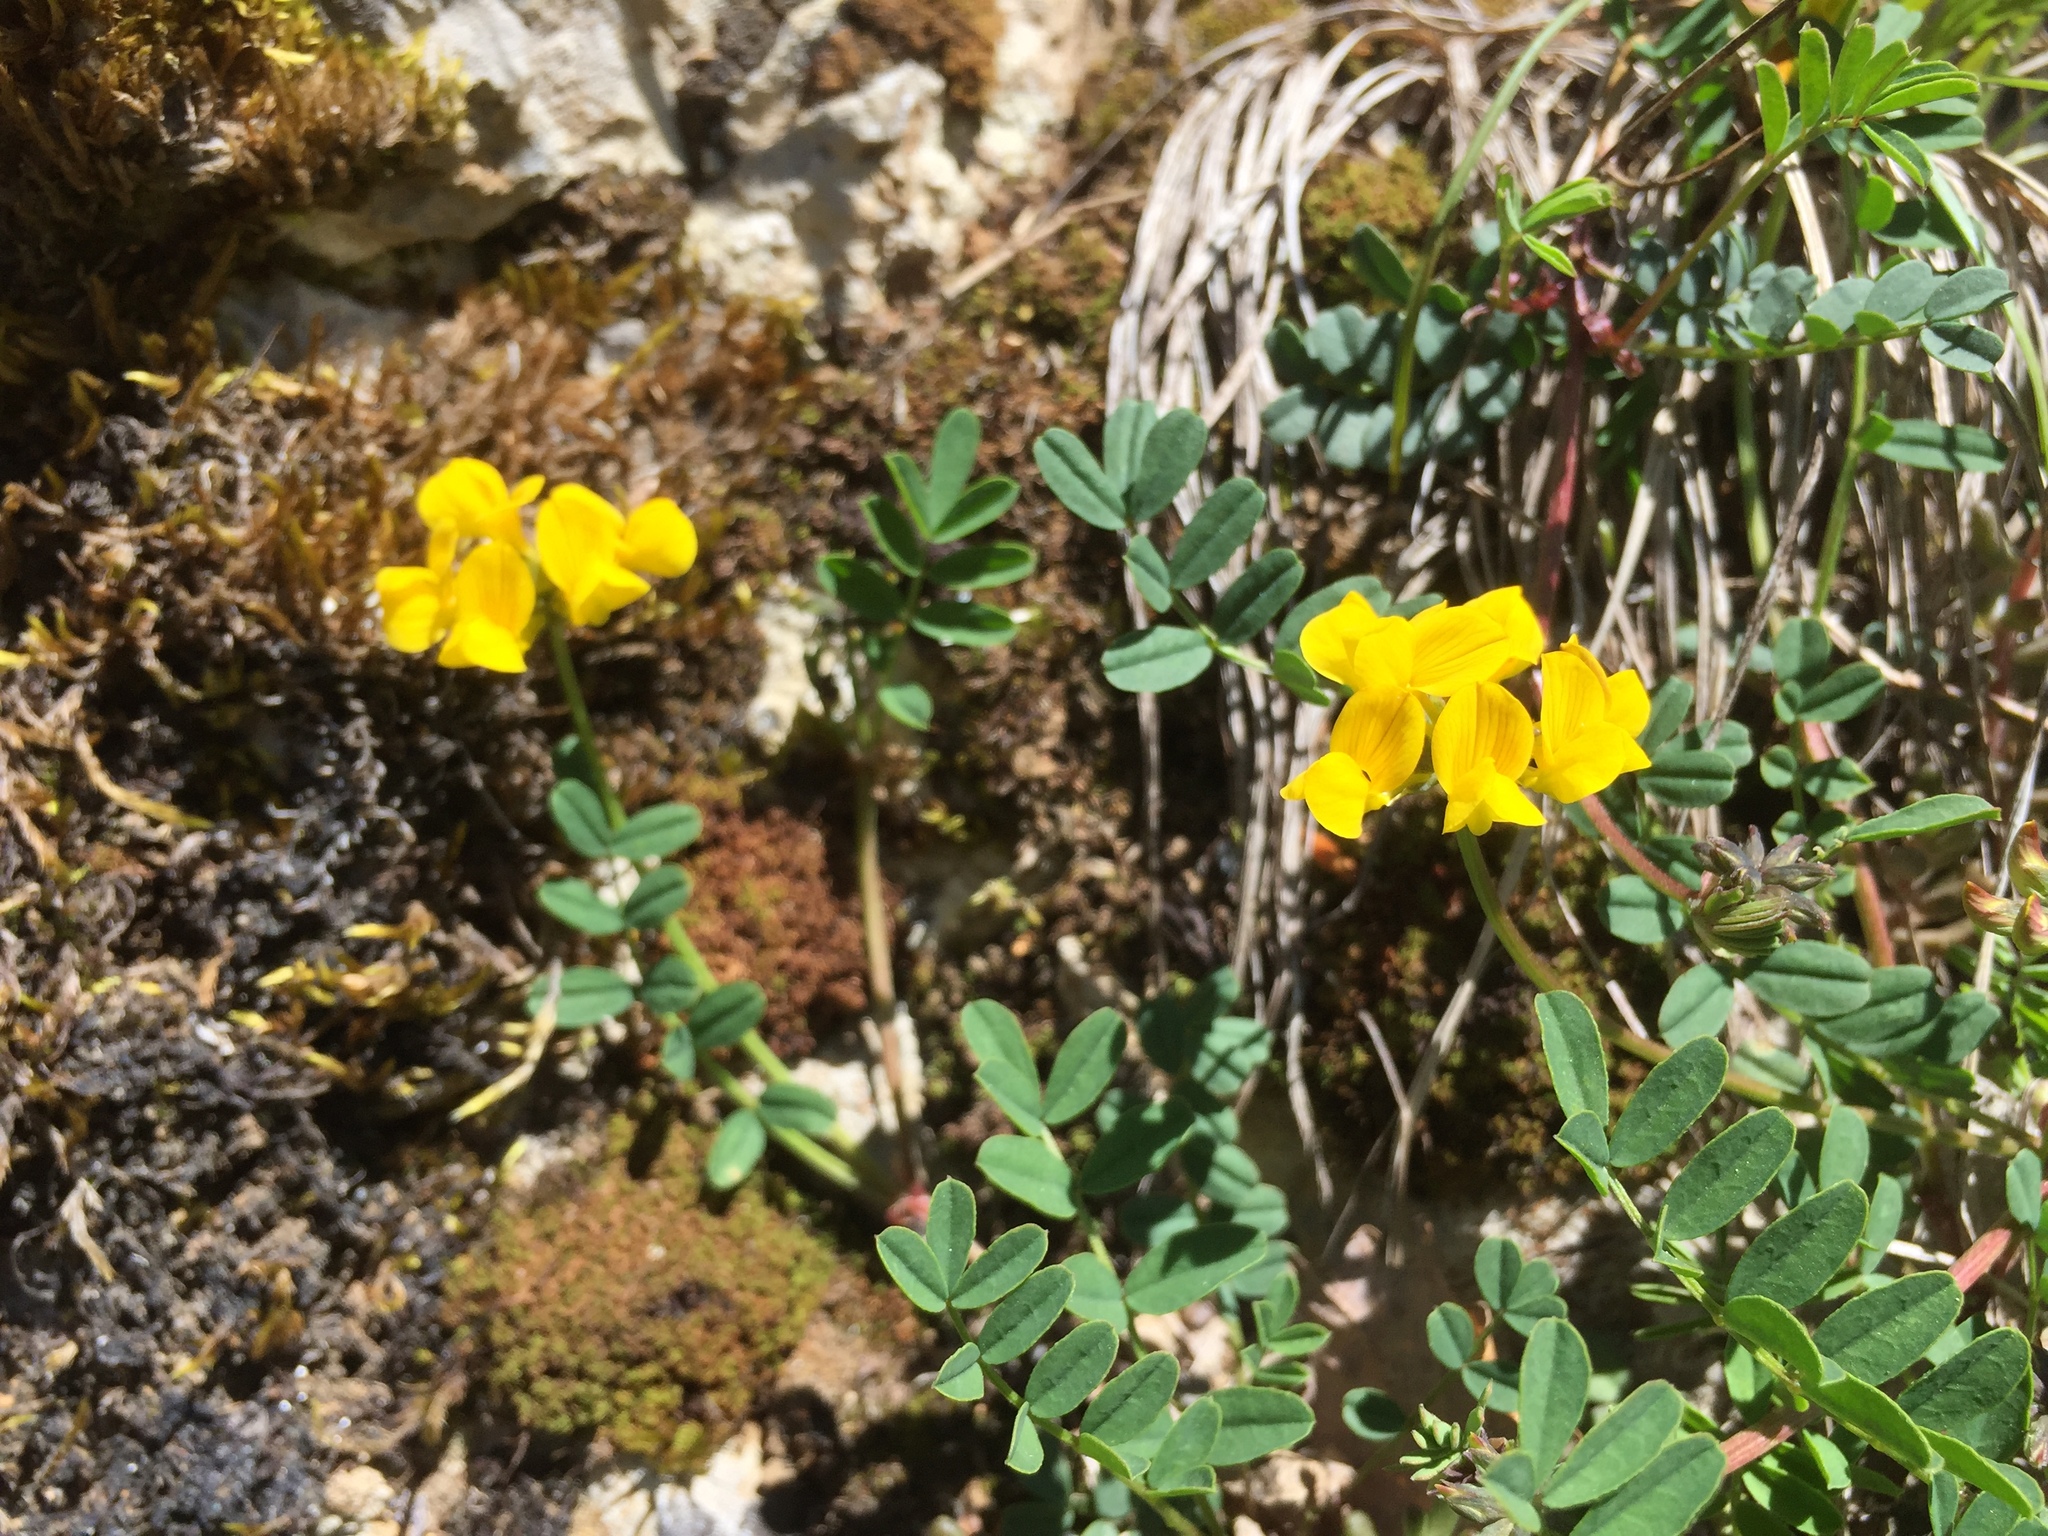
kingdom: Plantae
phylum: Tracheophyta
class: Magnoliopsida
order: Fabales
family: Fabaceae
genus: Hippocrepis
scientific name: Hippocrepis comosa
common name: Horseshoe vetch
